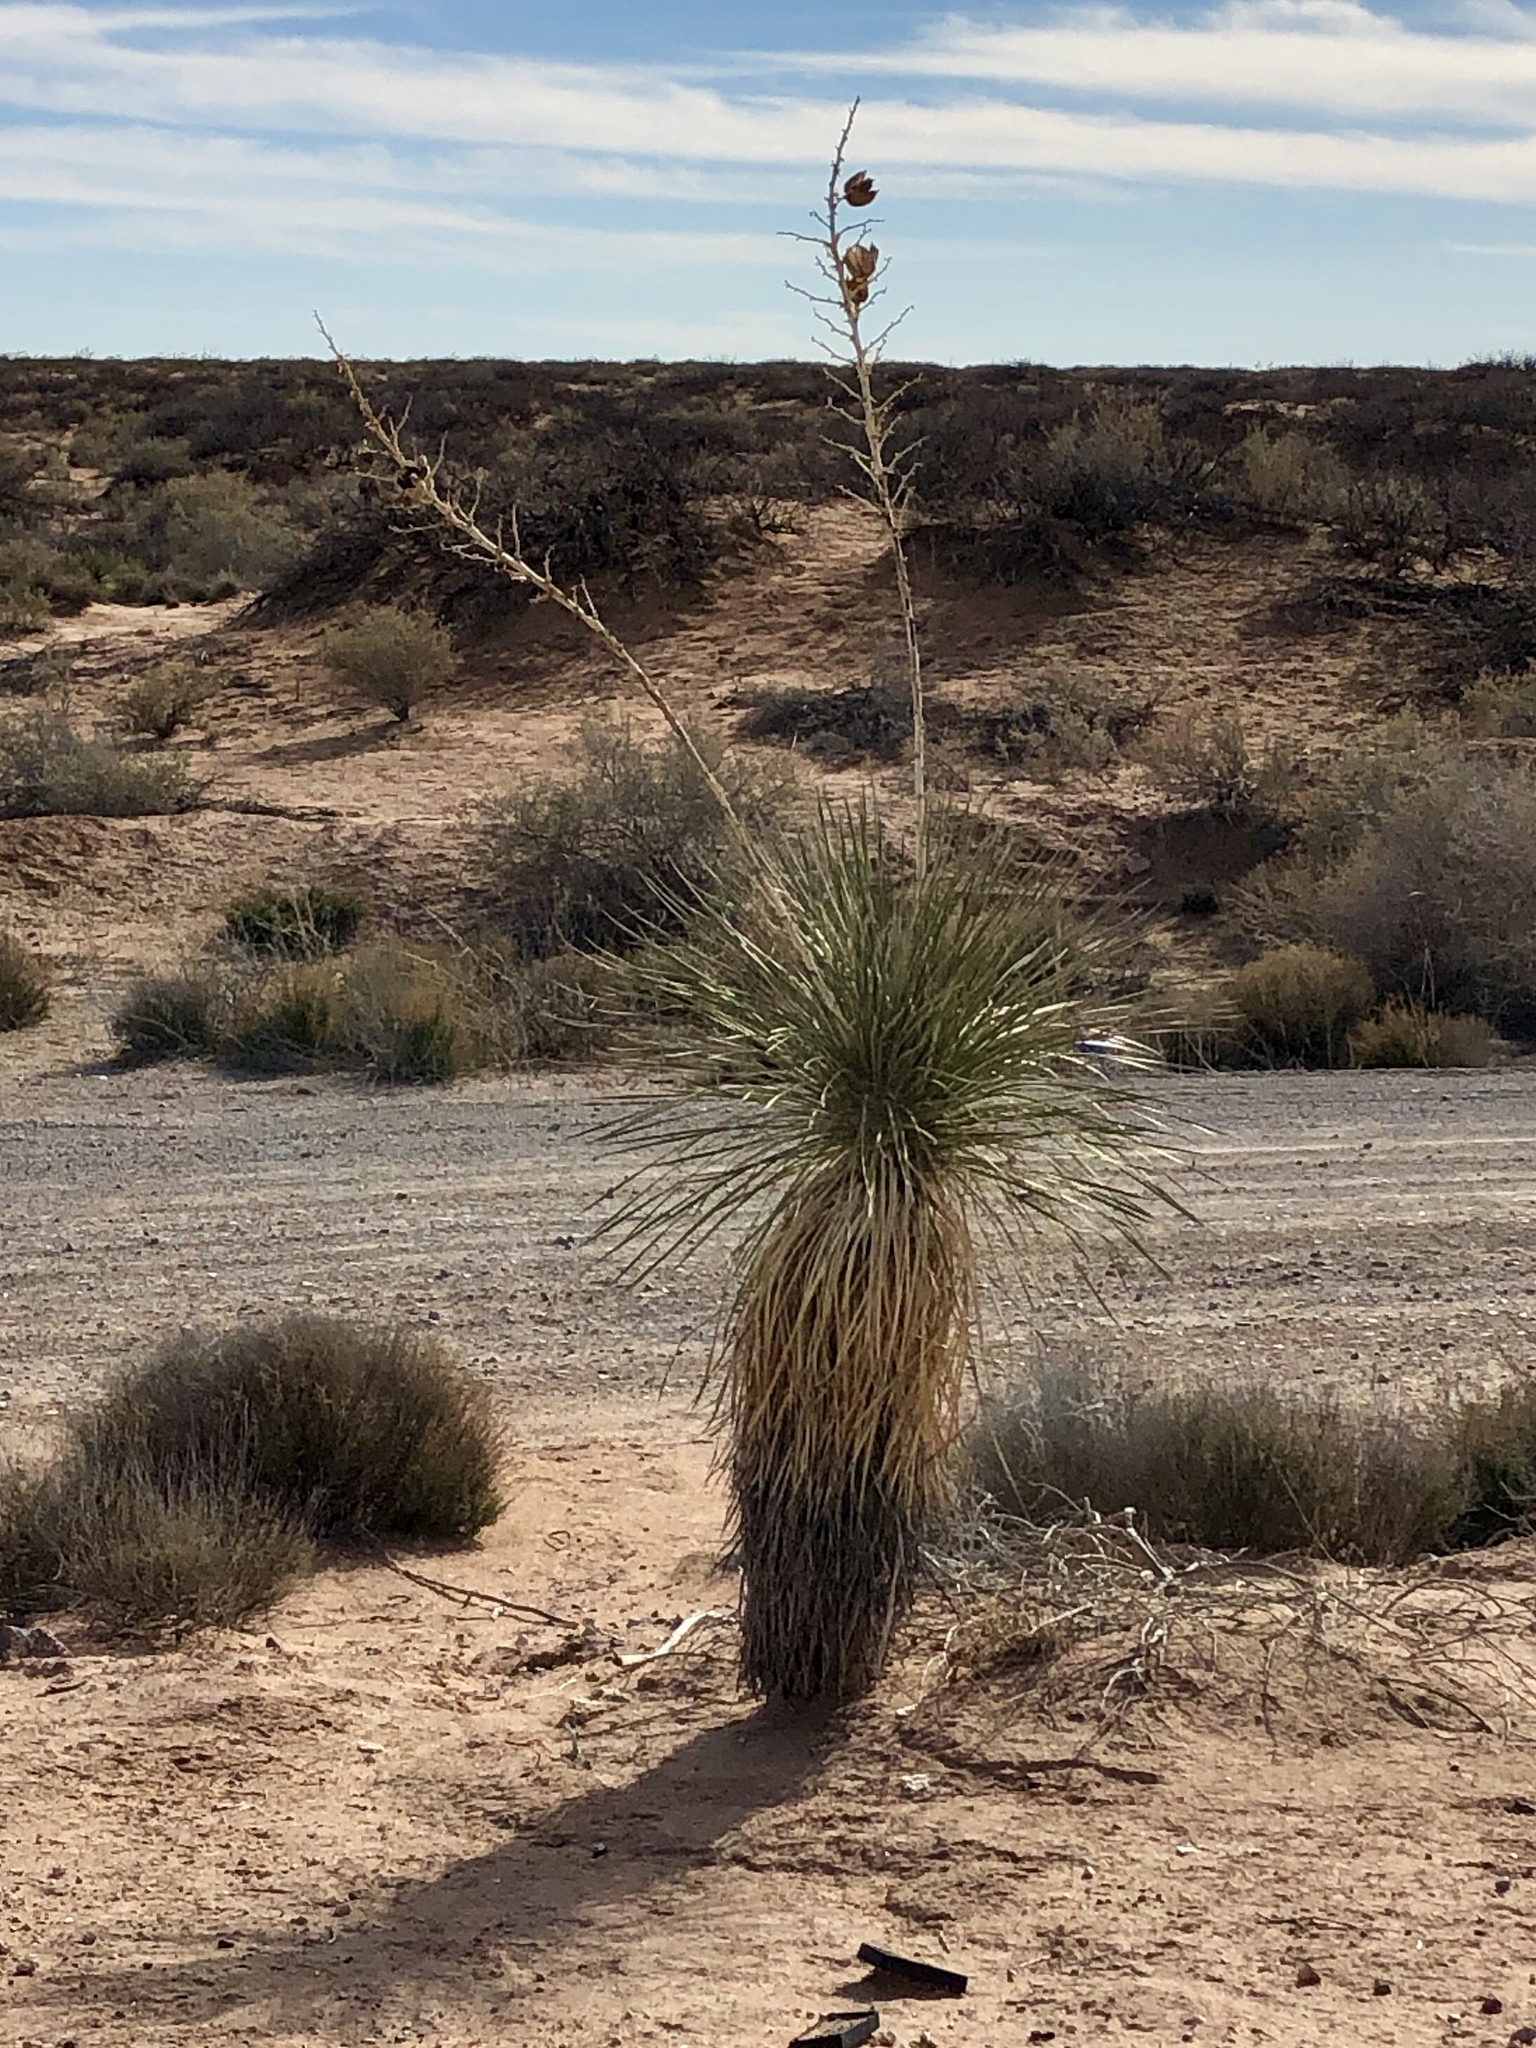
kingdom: Plantae
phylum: Tracheophyta
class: Liliopsida
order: Asparagales
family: Asparagaceae
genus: Yucca
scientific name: Yucca elata
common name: Palmella
